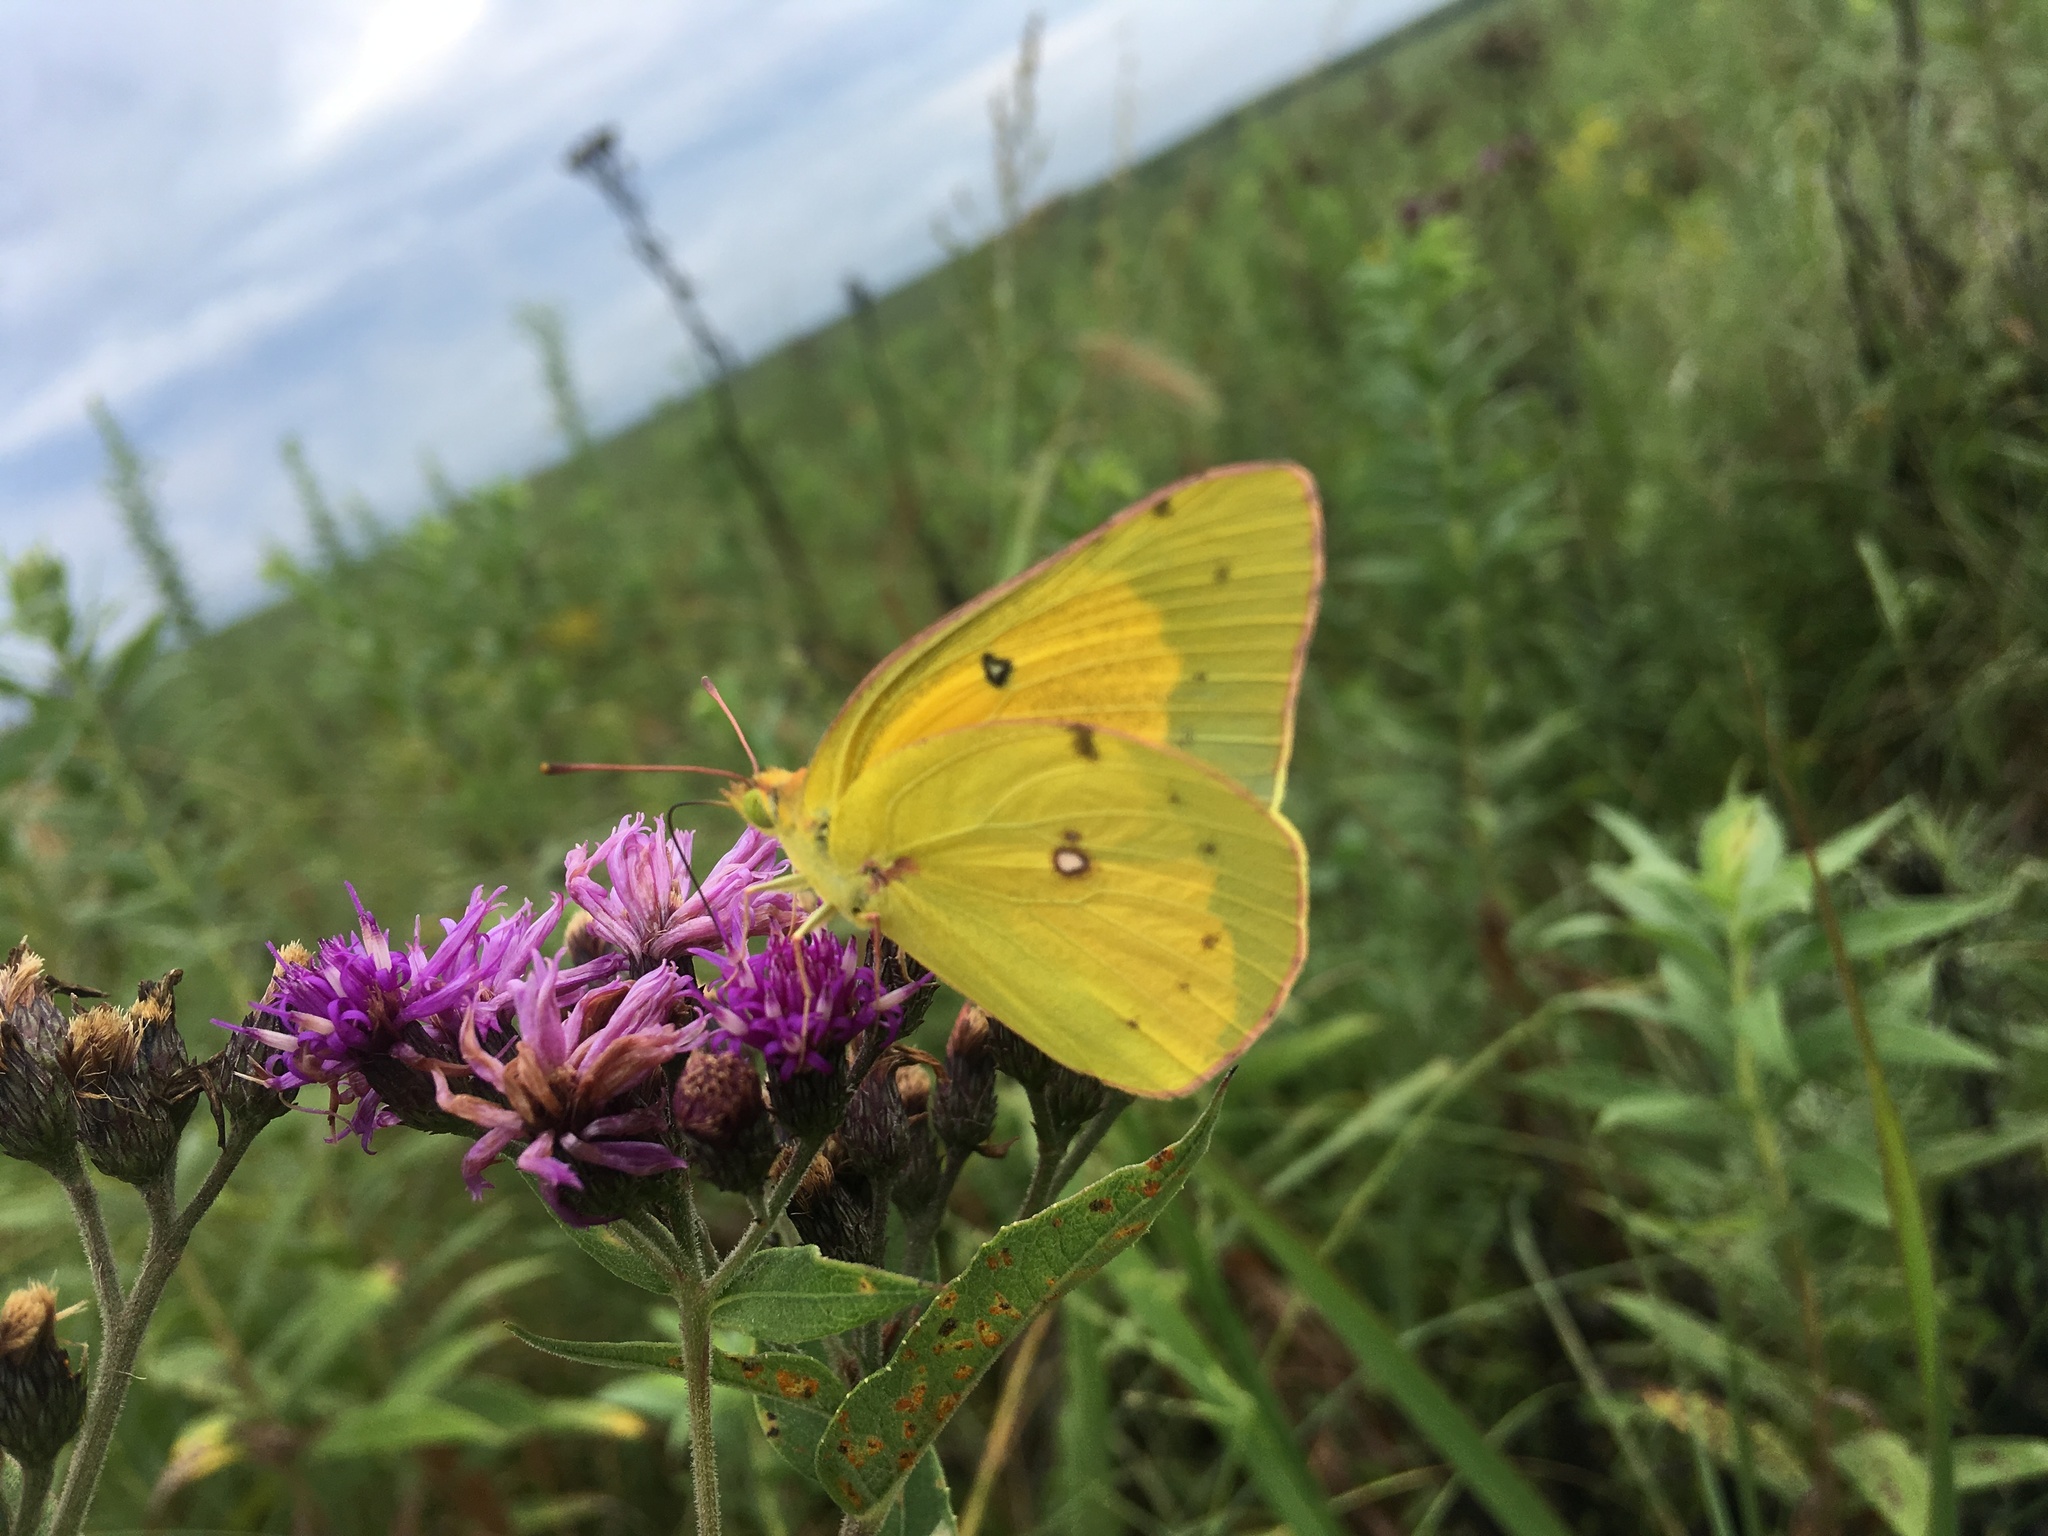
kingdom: Animalia
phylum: Arthropoda
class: Insecta
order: Lepidoptera
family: Pieridae
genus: Colias
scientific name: Colias eurytheme
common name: Alfalfa butterfly
